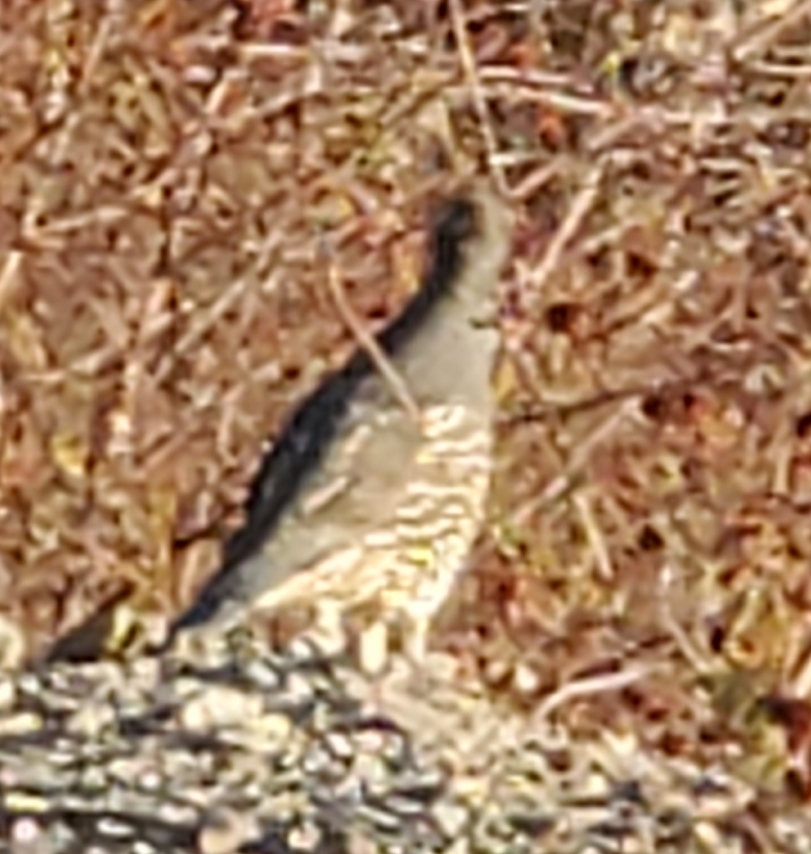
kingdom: Animalia
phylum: Chordata
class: Aves
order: Galliformes
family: Odontophoridae
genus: Callipepla
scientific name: Callipepla californica
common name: California quail
